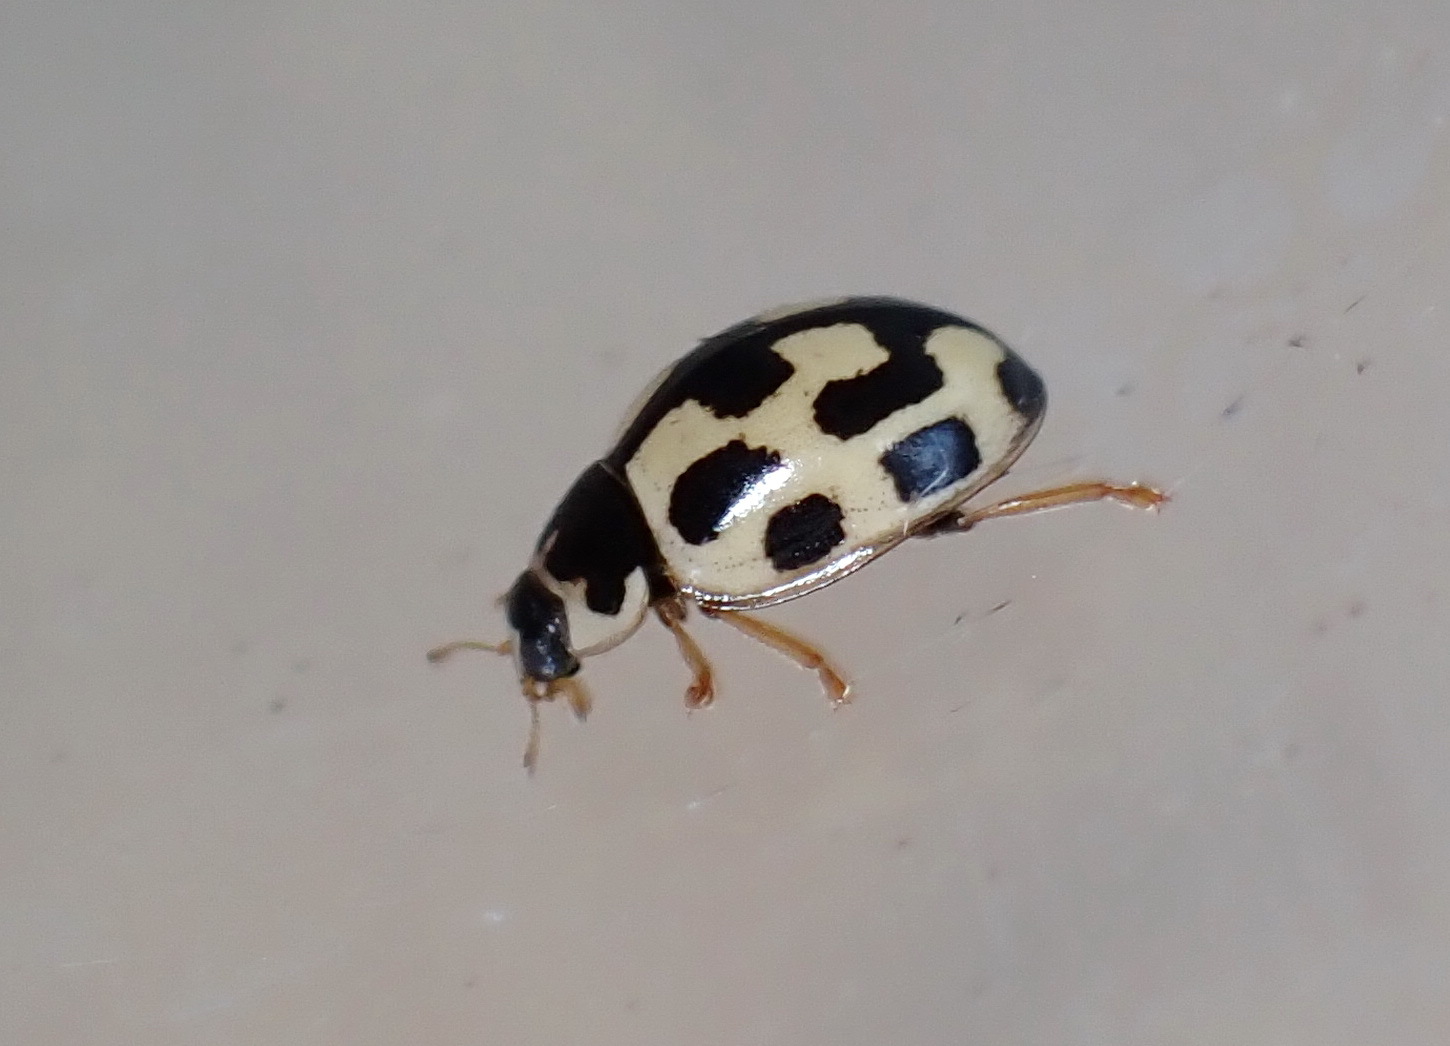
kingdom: Animalia
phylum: Arthropoda
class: Insecta
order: Coleoptera
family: Coccinellidae
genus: Propylaea
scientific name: Propylaea quatuordecimpunctata
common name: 14-spotted ladybird beetle
